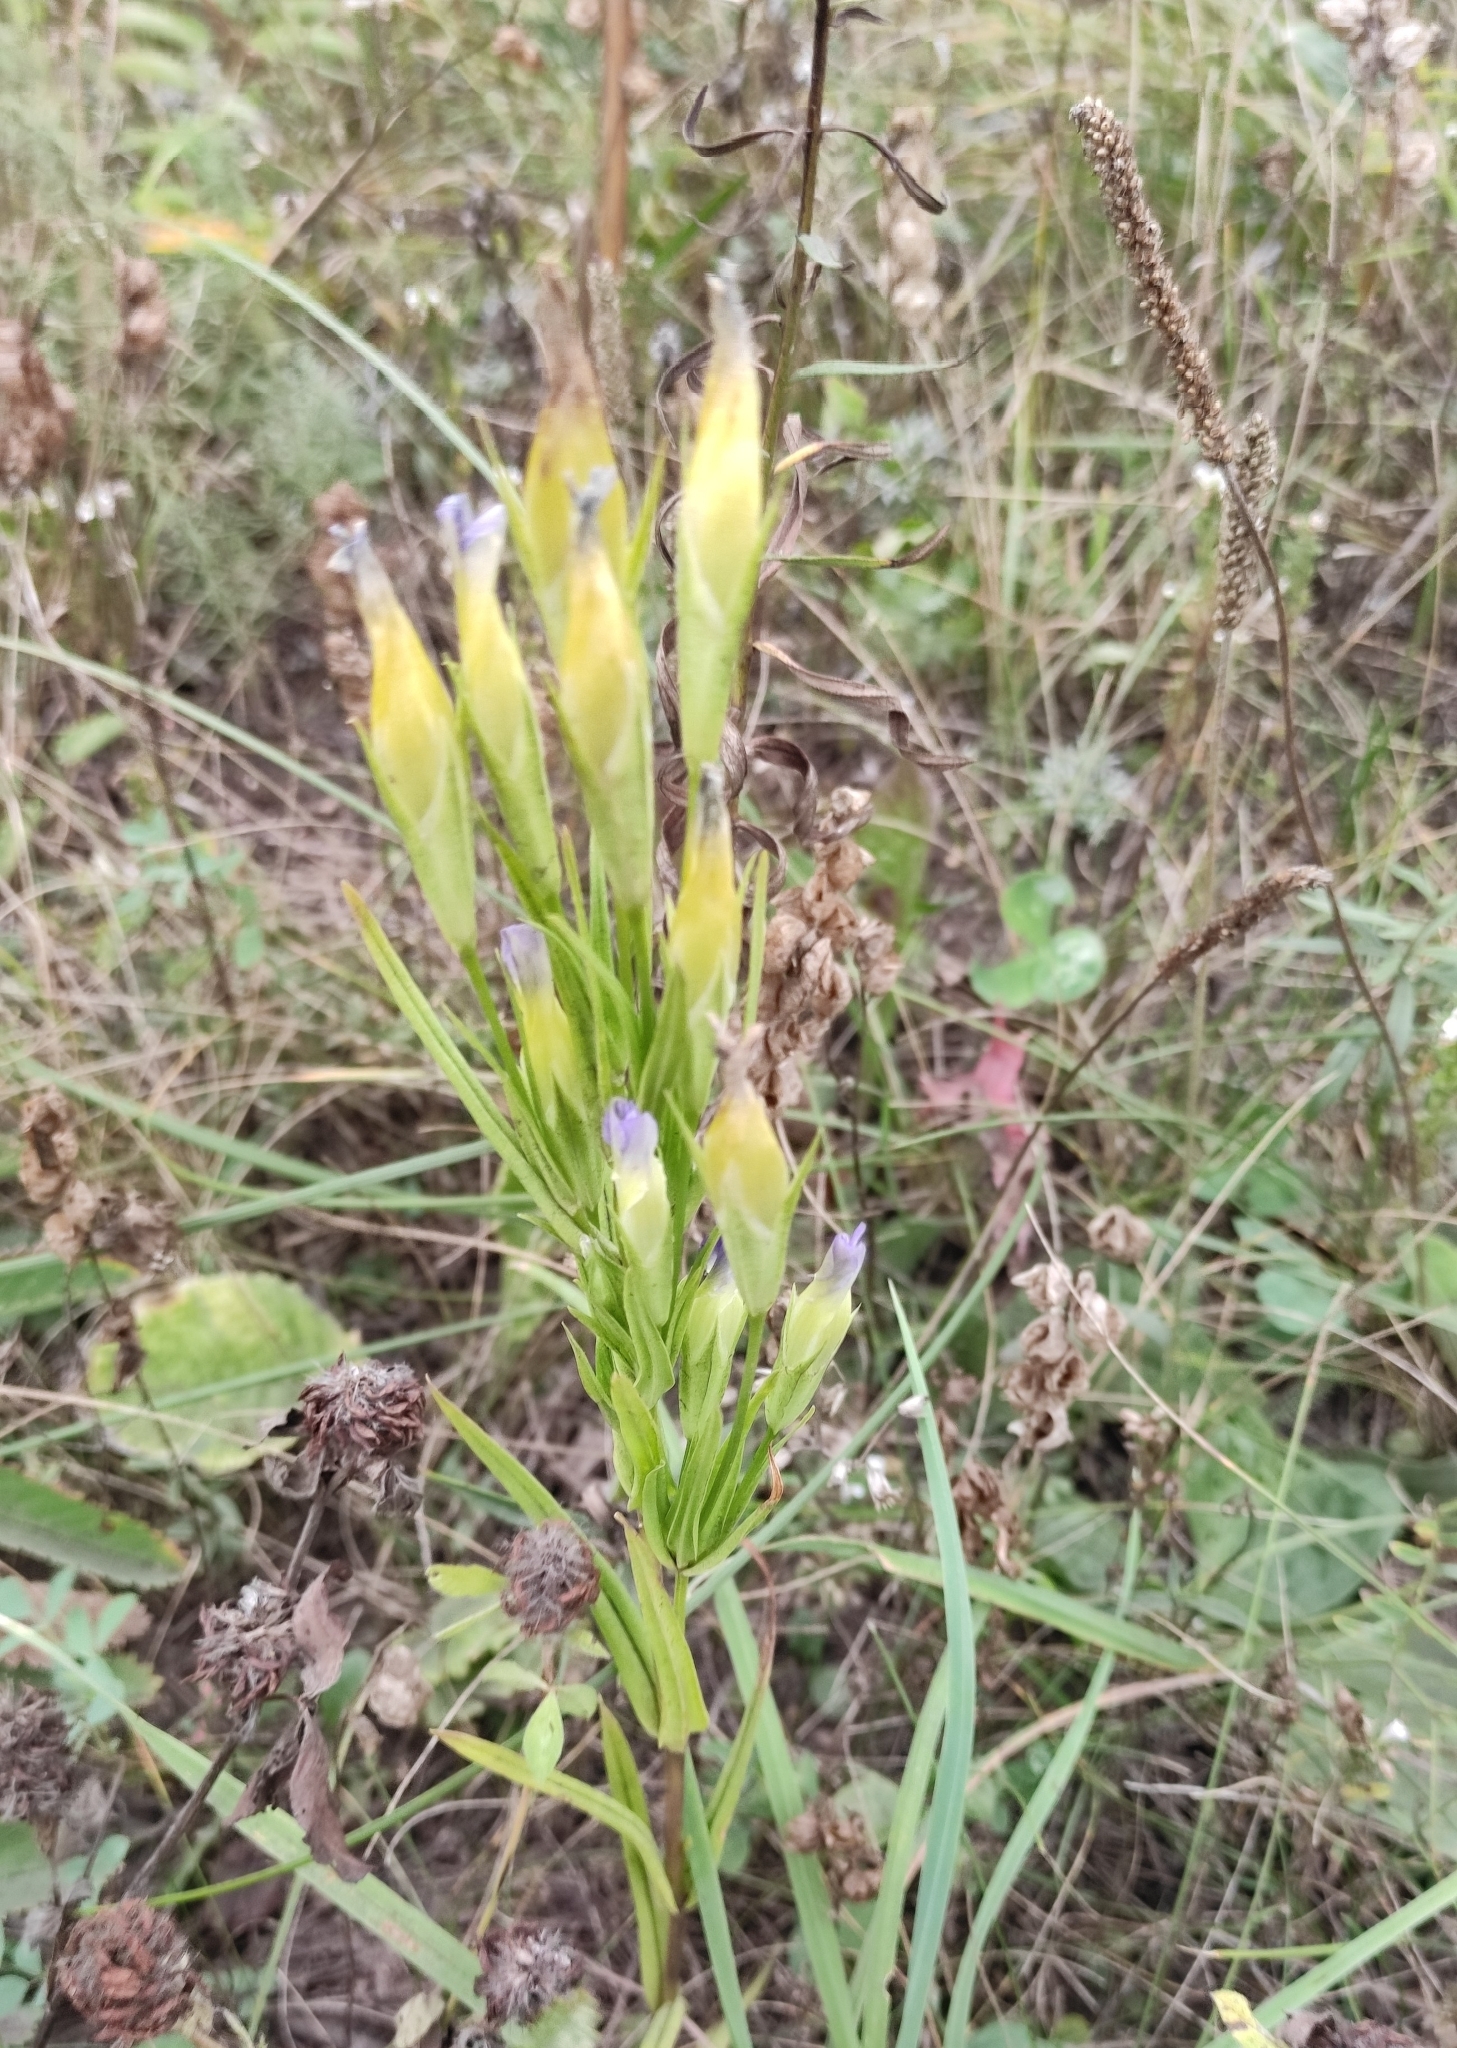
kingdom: Plantae
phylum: Tracheophyta
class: Magnoliopsida
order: Gentianales
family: Gentianaceae
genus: Gentianopsis
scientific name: Gentianopsis barbata
